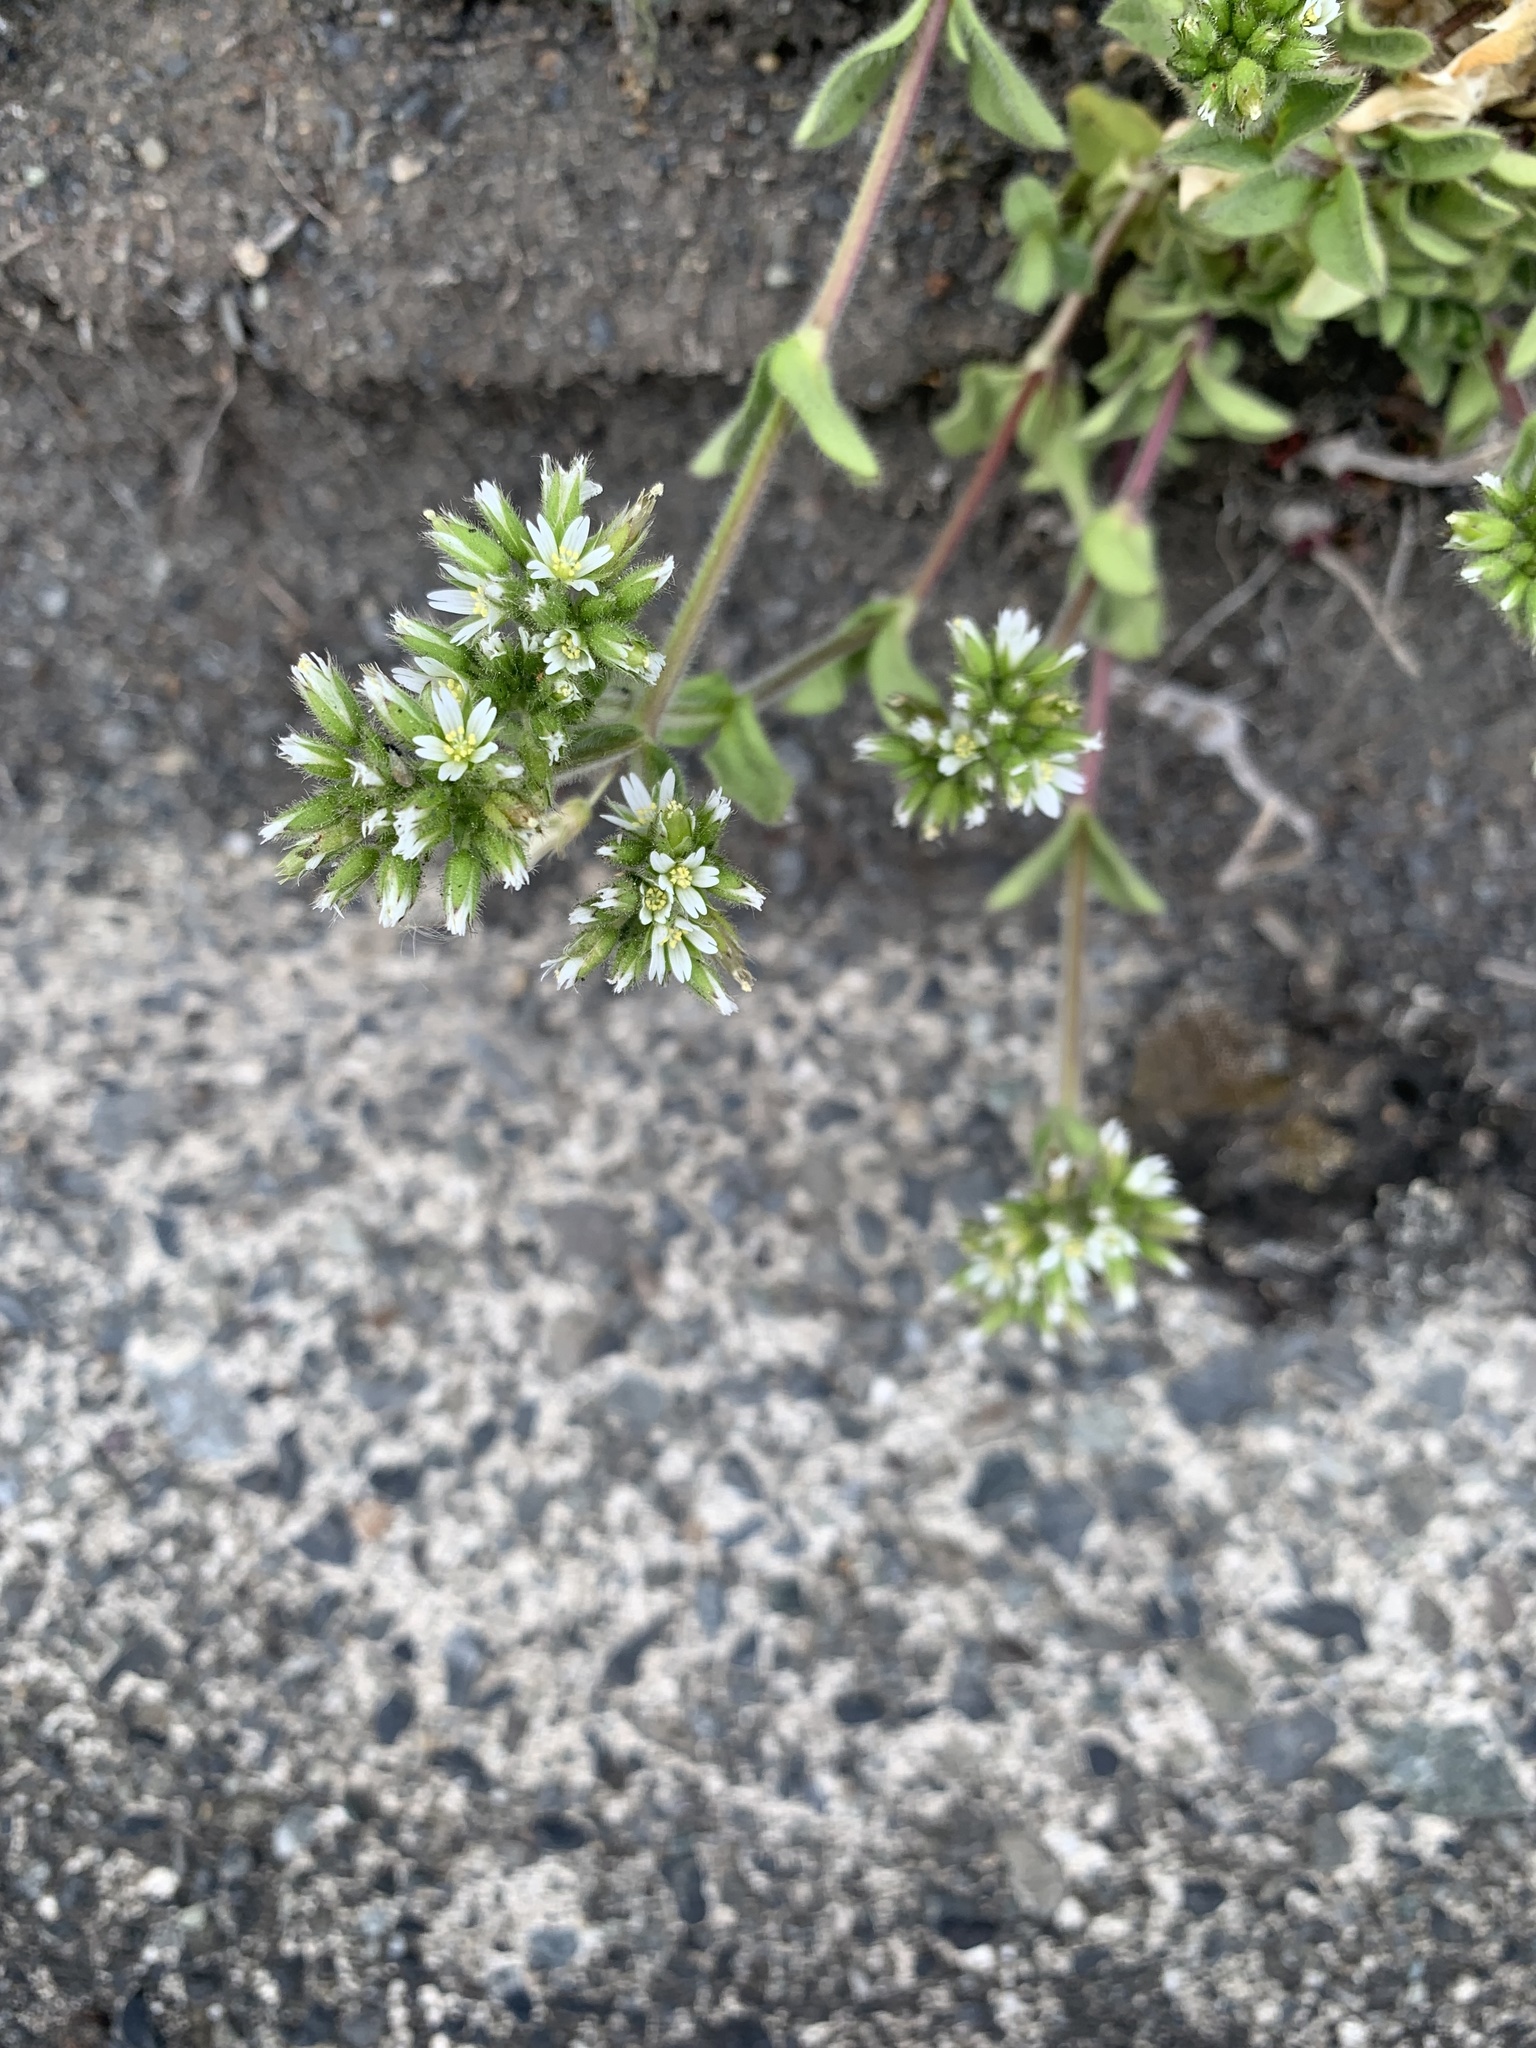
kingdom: Plantae
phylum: Tracheophyta
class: Magnoliopsida
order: Caryophyllales
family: Caryophyllaceae
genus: Cerastium
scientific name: Cerastium glomeratum
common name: Sticky chickweed
